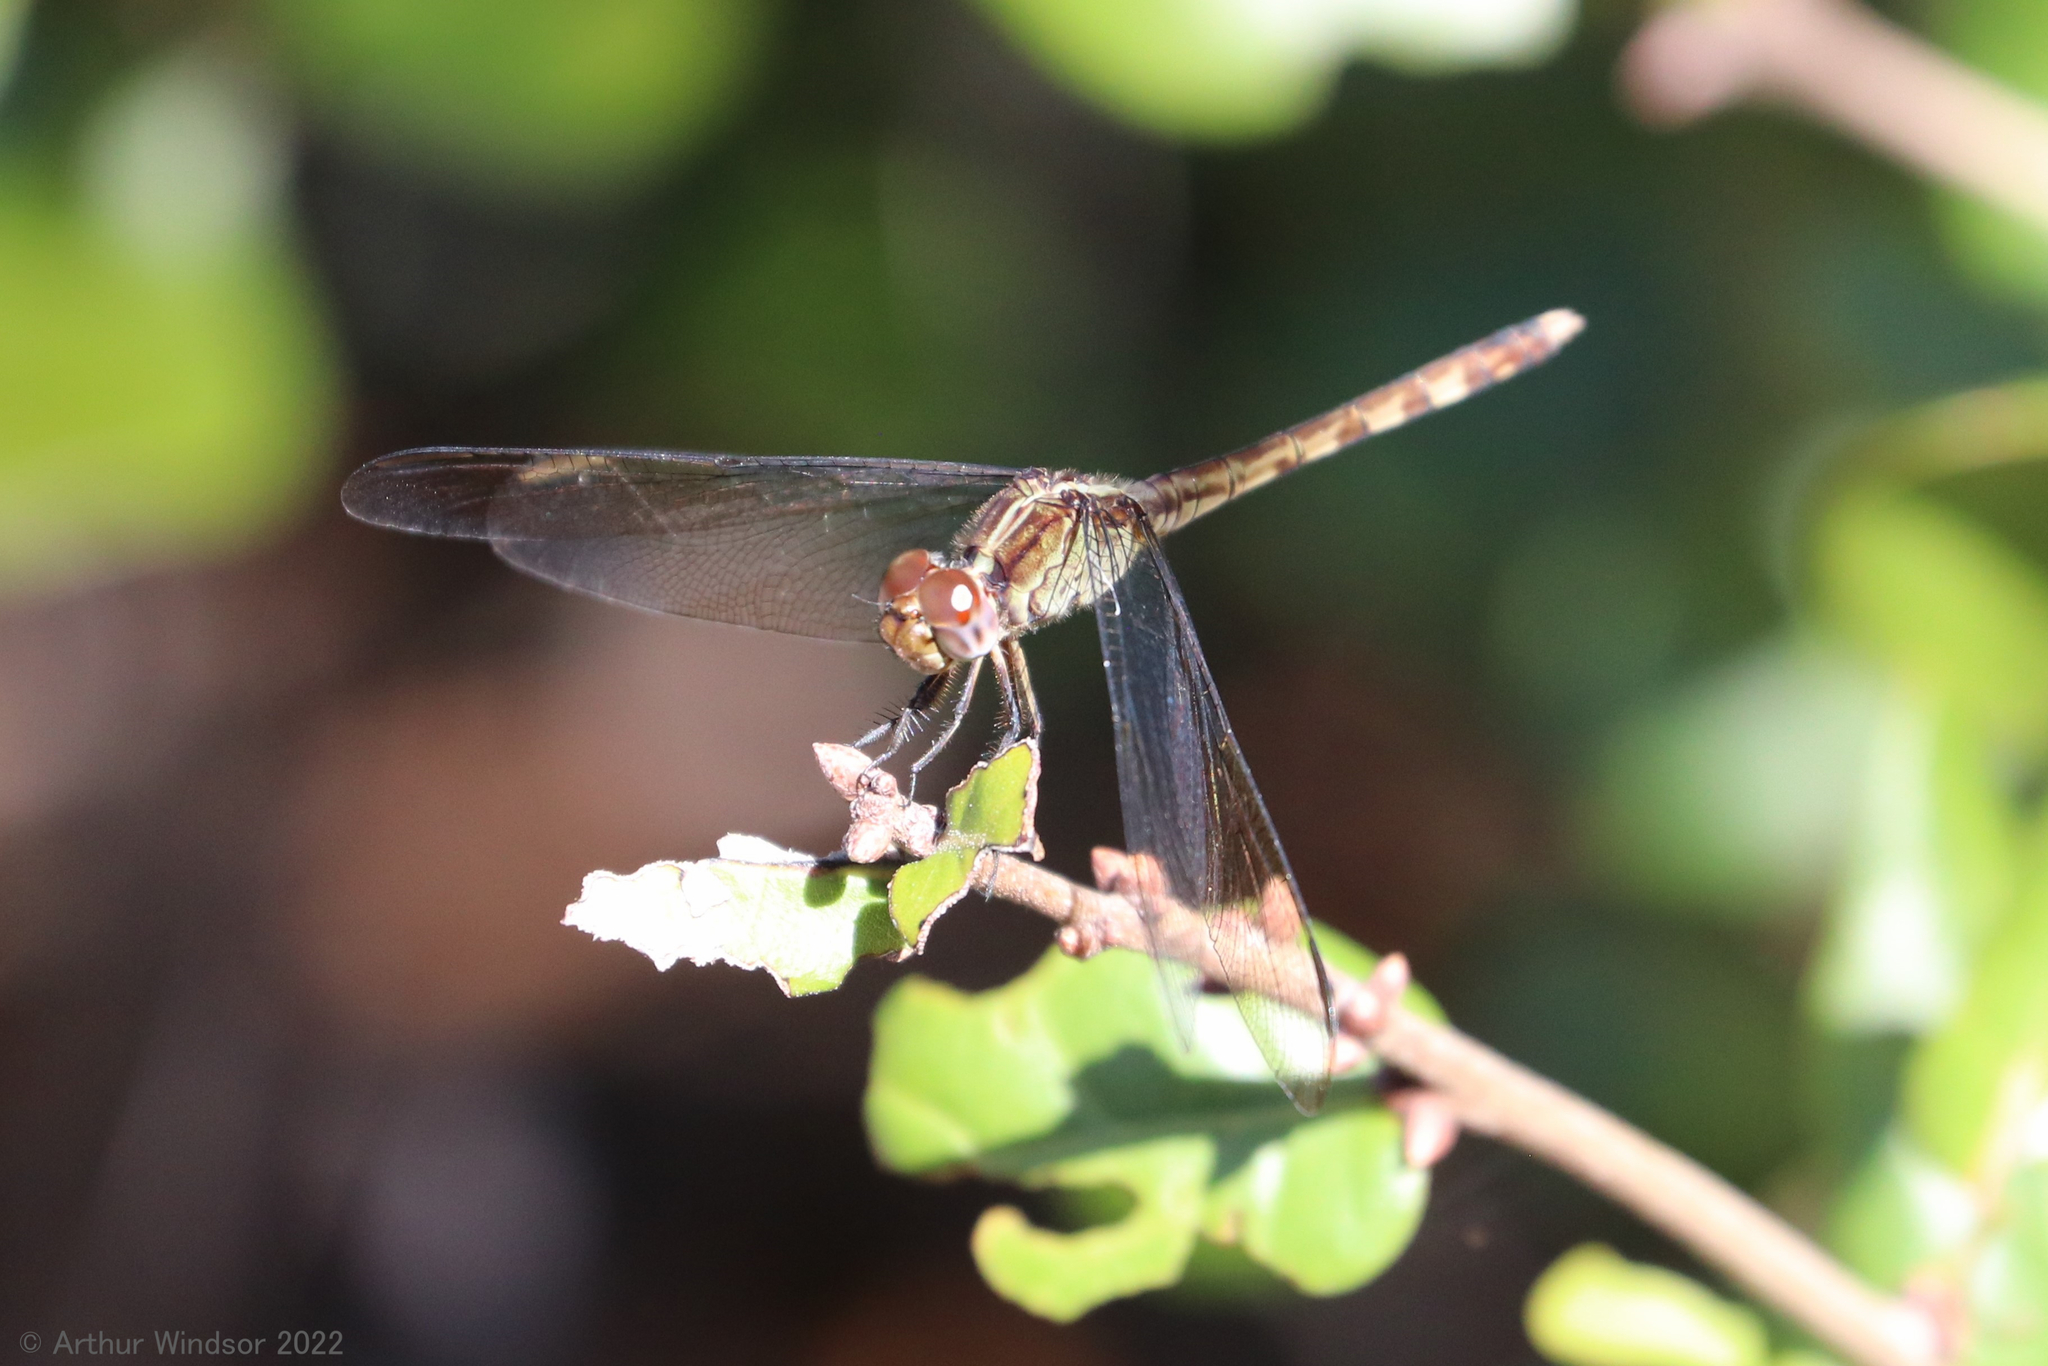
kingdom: Animalia
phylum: Arthropoda
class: Insecta
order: Odonata
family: Libellulidae
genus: Erythrodiplax
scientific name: Erythrodiplax umbrata
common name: Band-winged dragonlet
